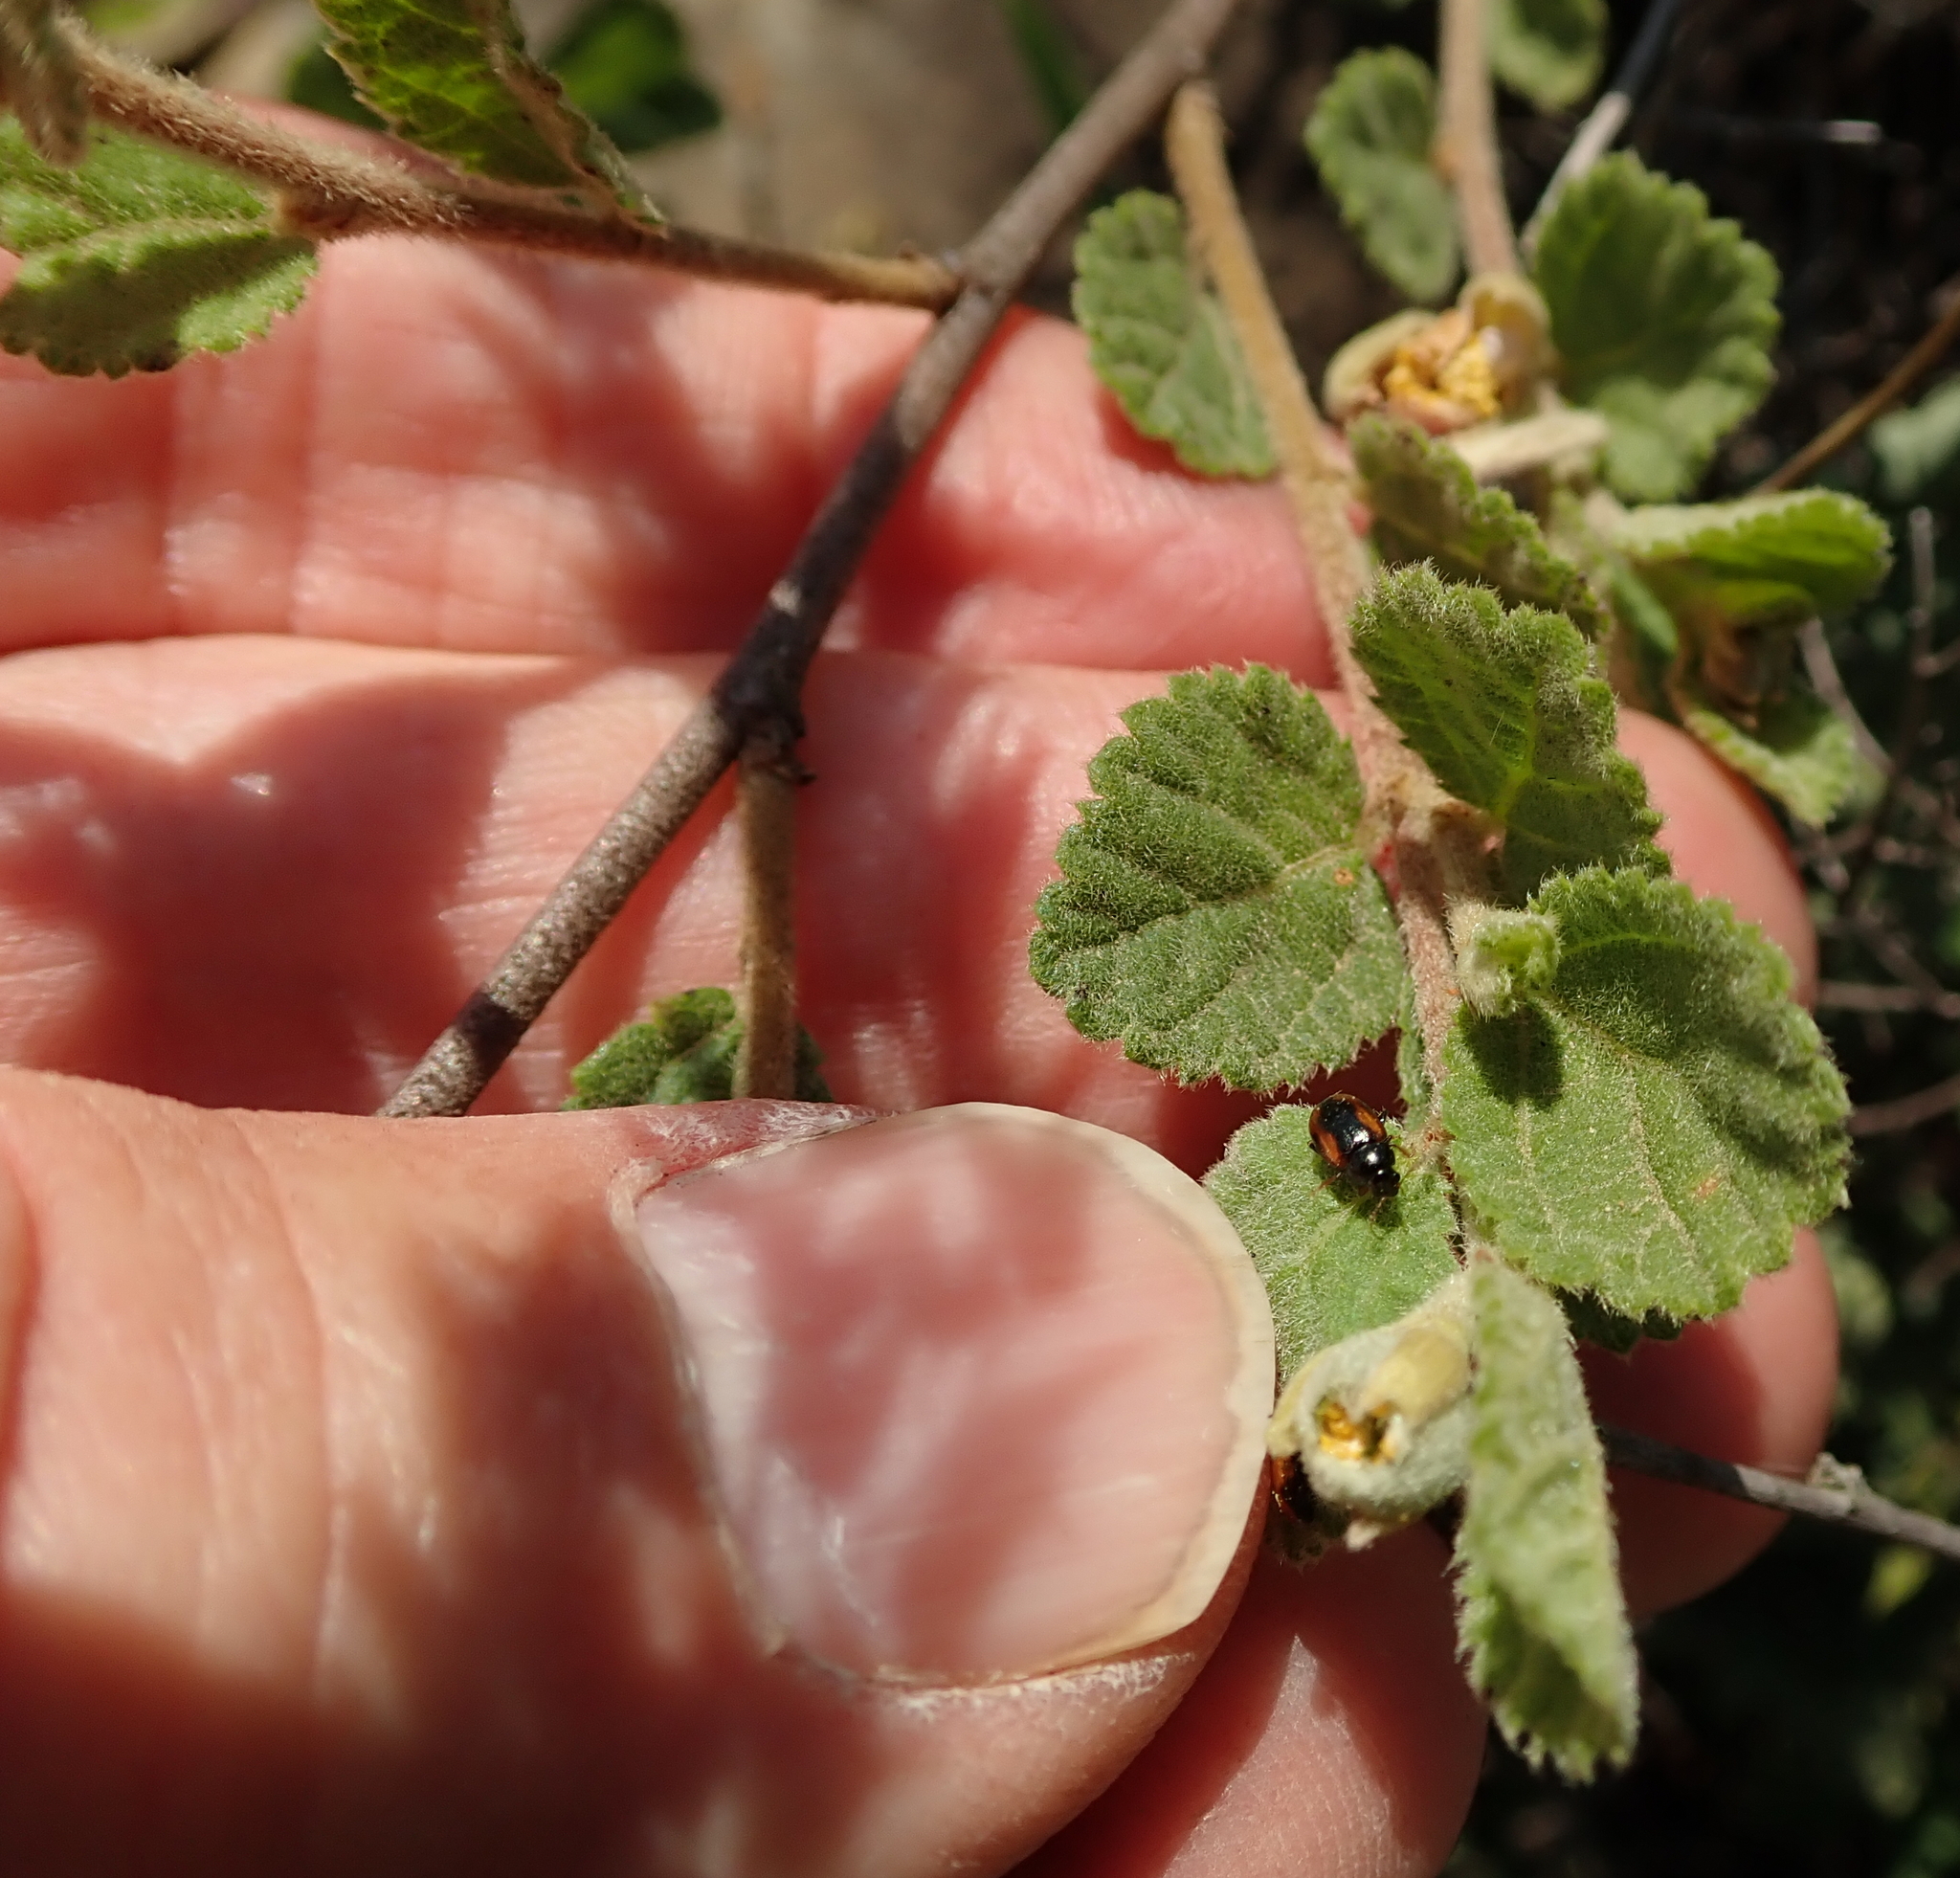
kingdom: Plantae
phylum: Tracheophyta
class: Magnoliopsida
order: Malvales
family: Malvaceae
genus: Grewia
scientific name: Grewia hispida
